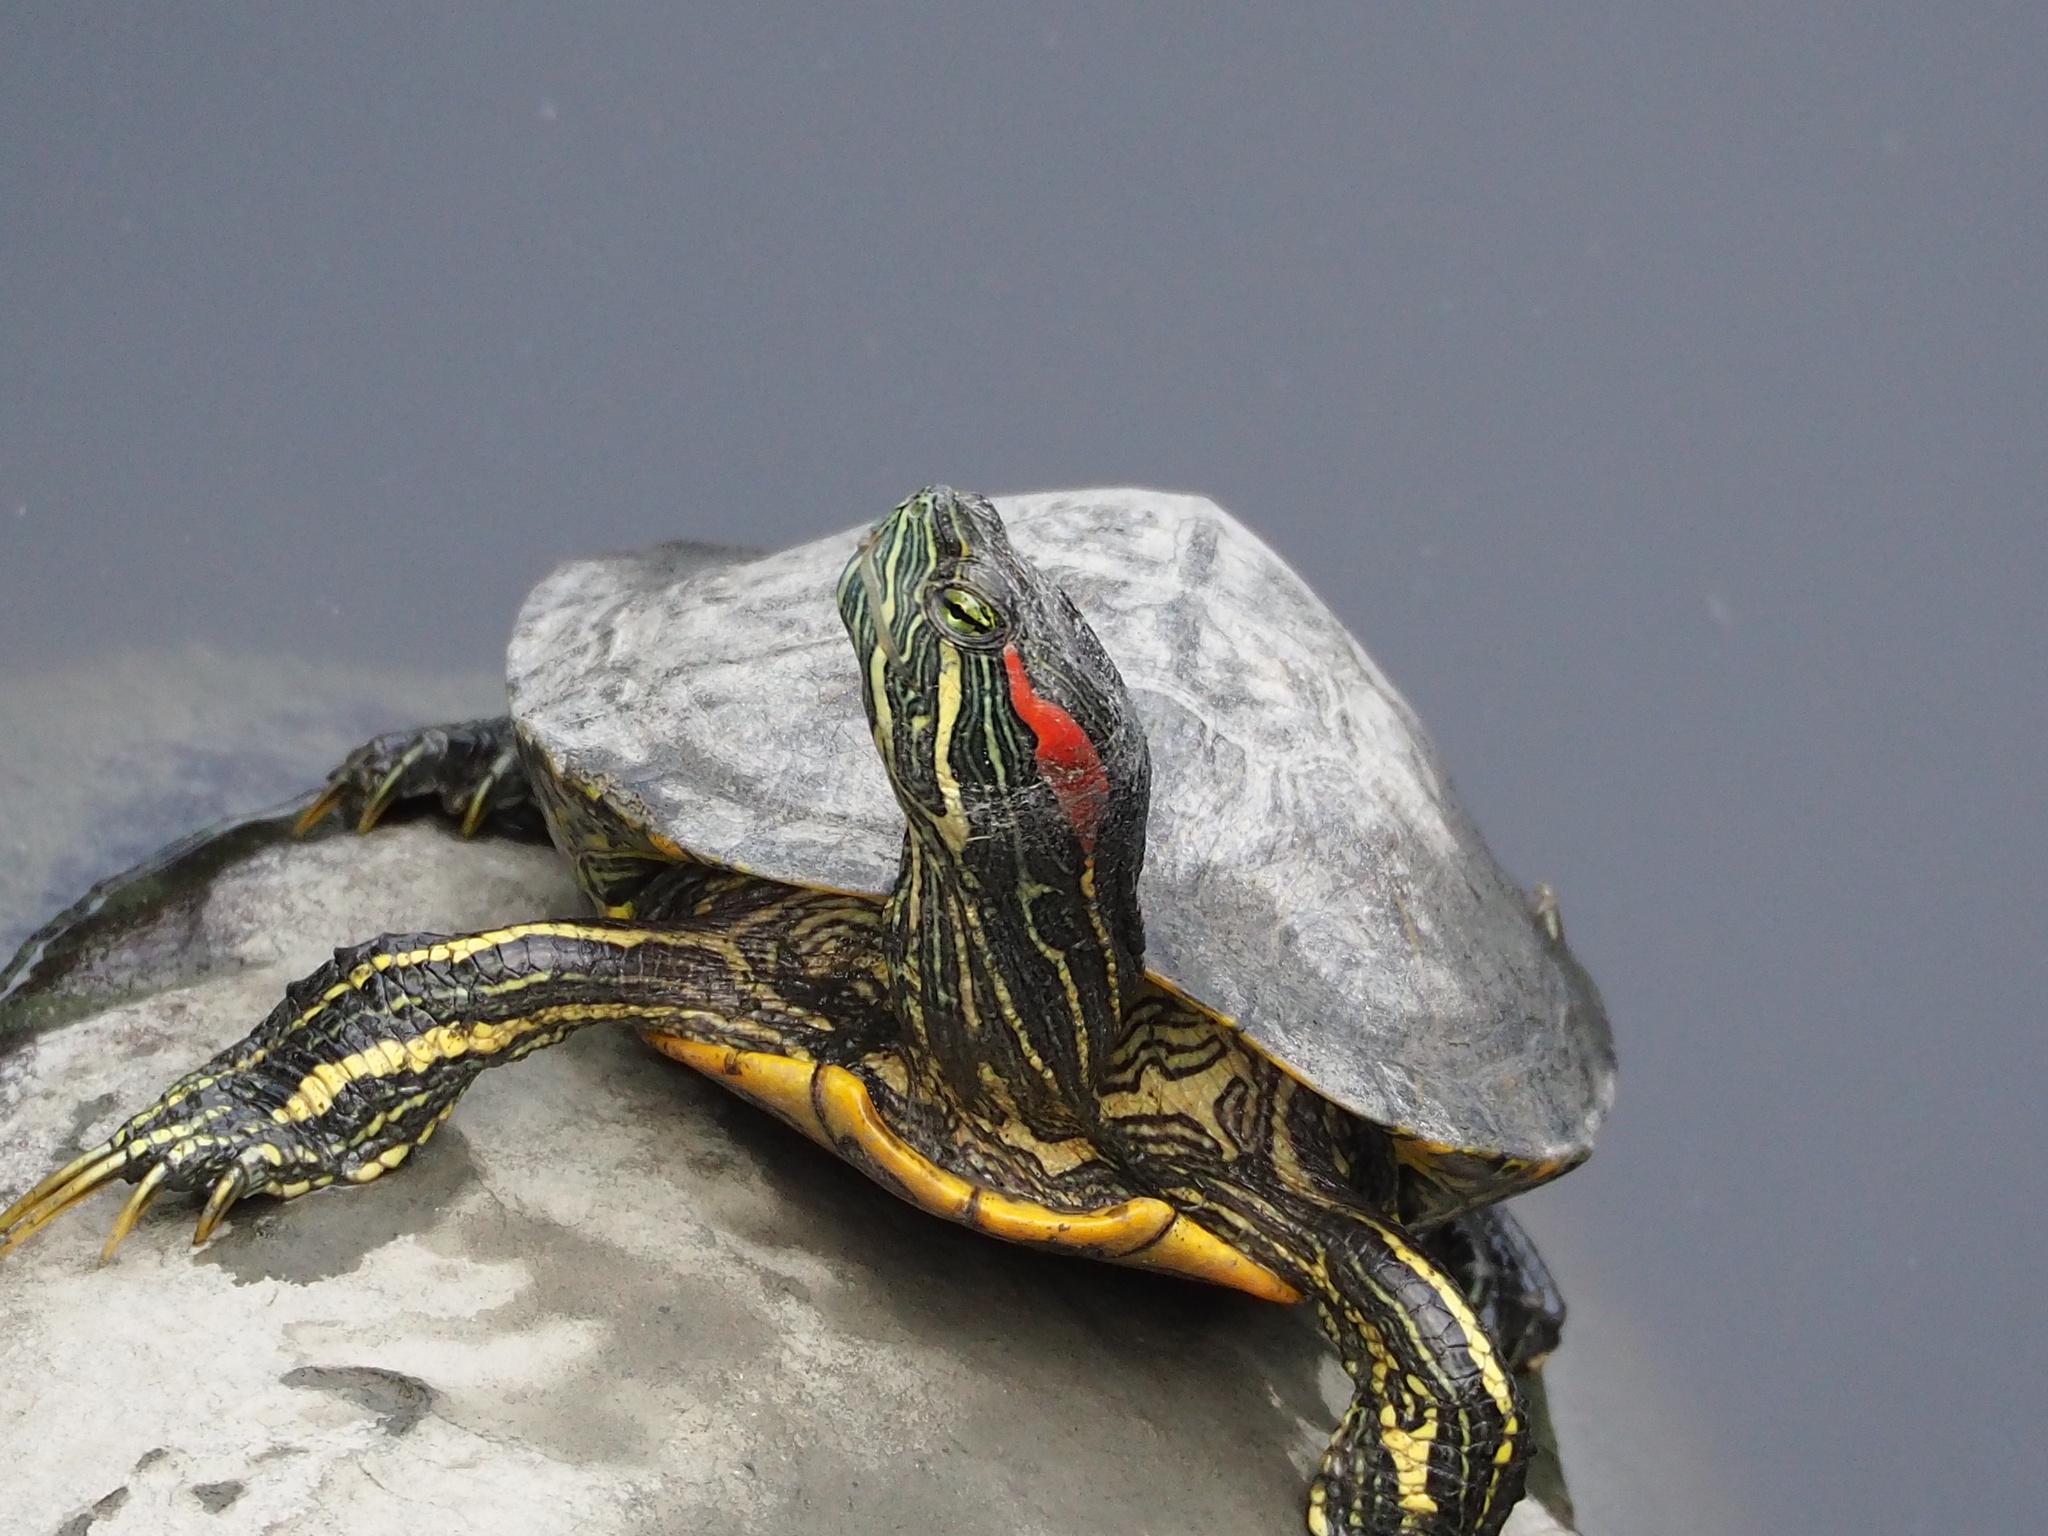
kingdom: Animalia
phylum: Chordata
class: Testudines
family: Emydidae
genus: Trachemys
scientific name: Trachemys scripta
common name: Slider
